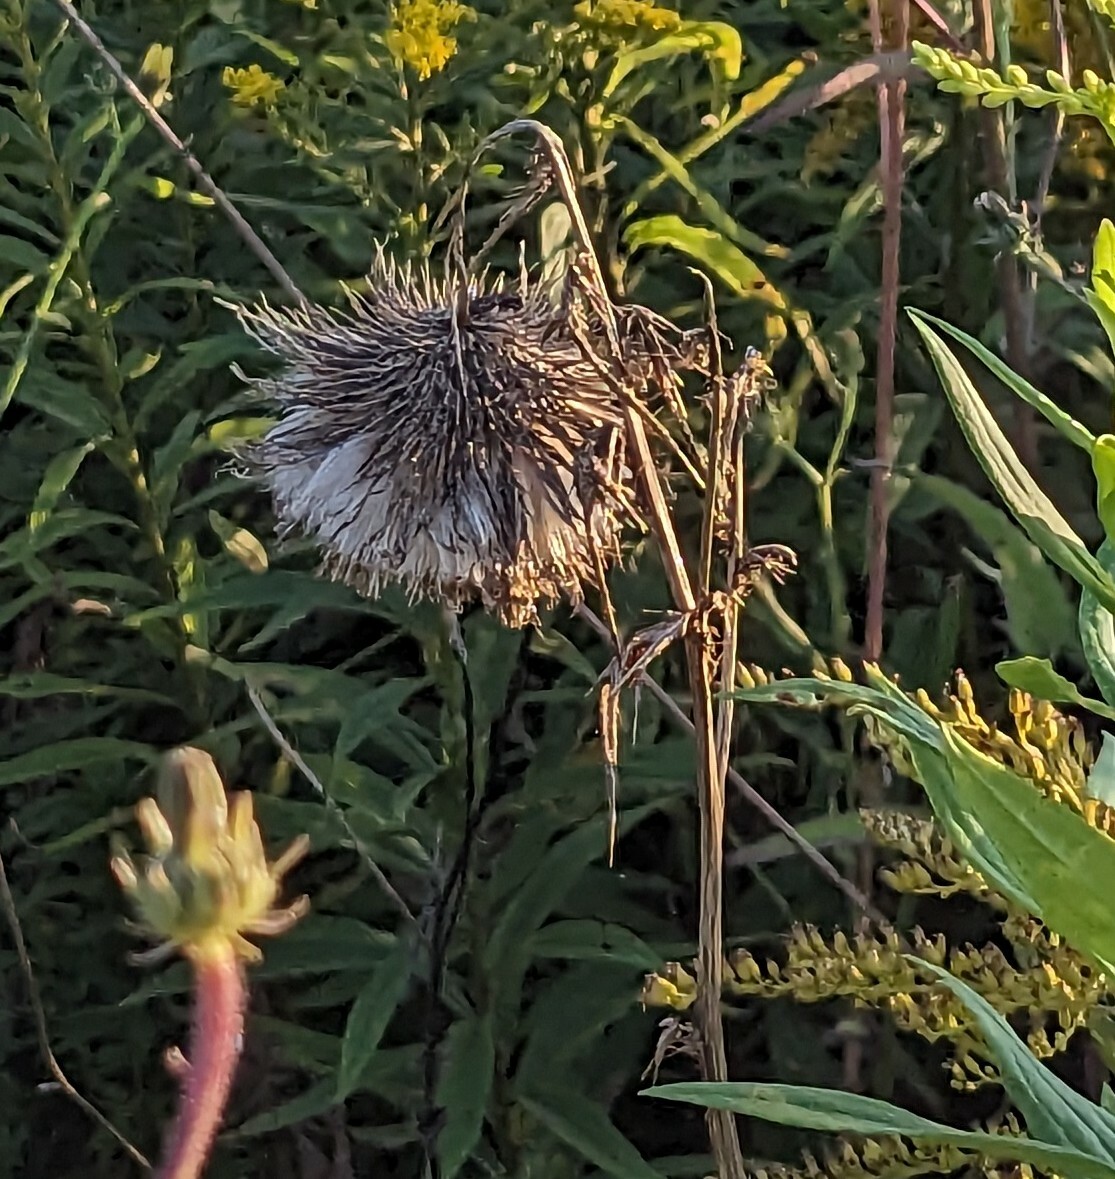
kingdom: Plantae
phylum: Tracheophyta
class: Magnoliopsida
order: Asterales
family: Asteraceae
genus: Cirsium
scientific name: Cirsium vulgare
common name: Bull thistle
